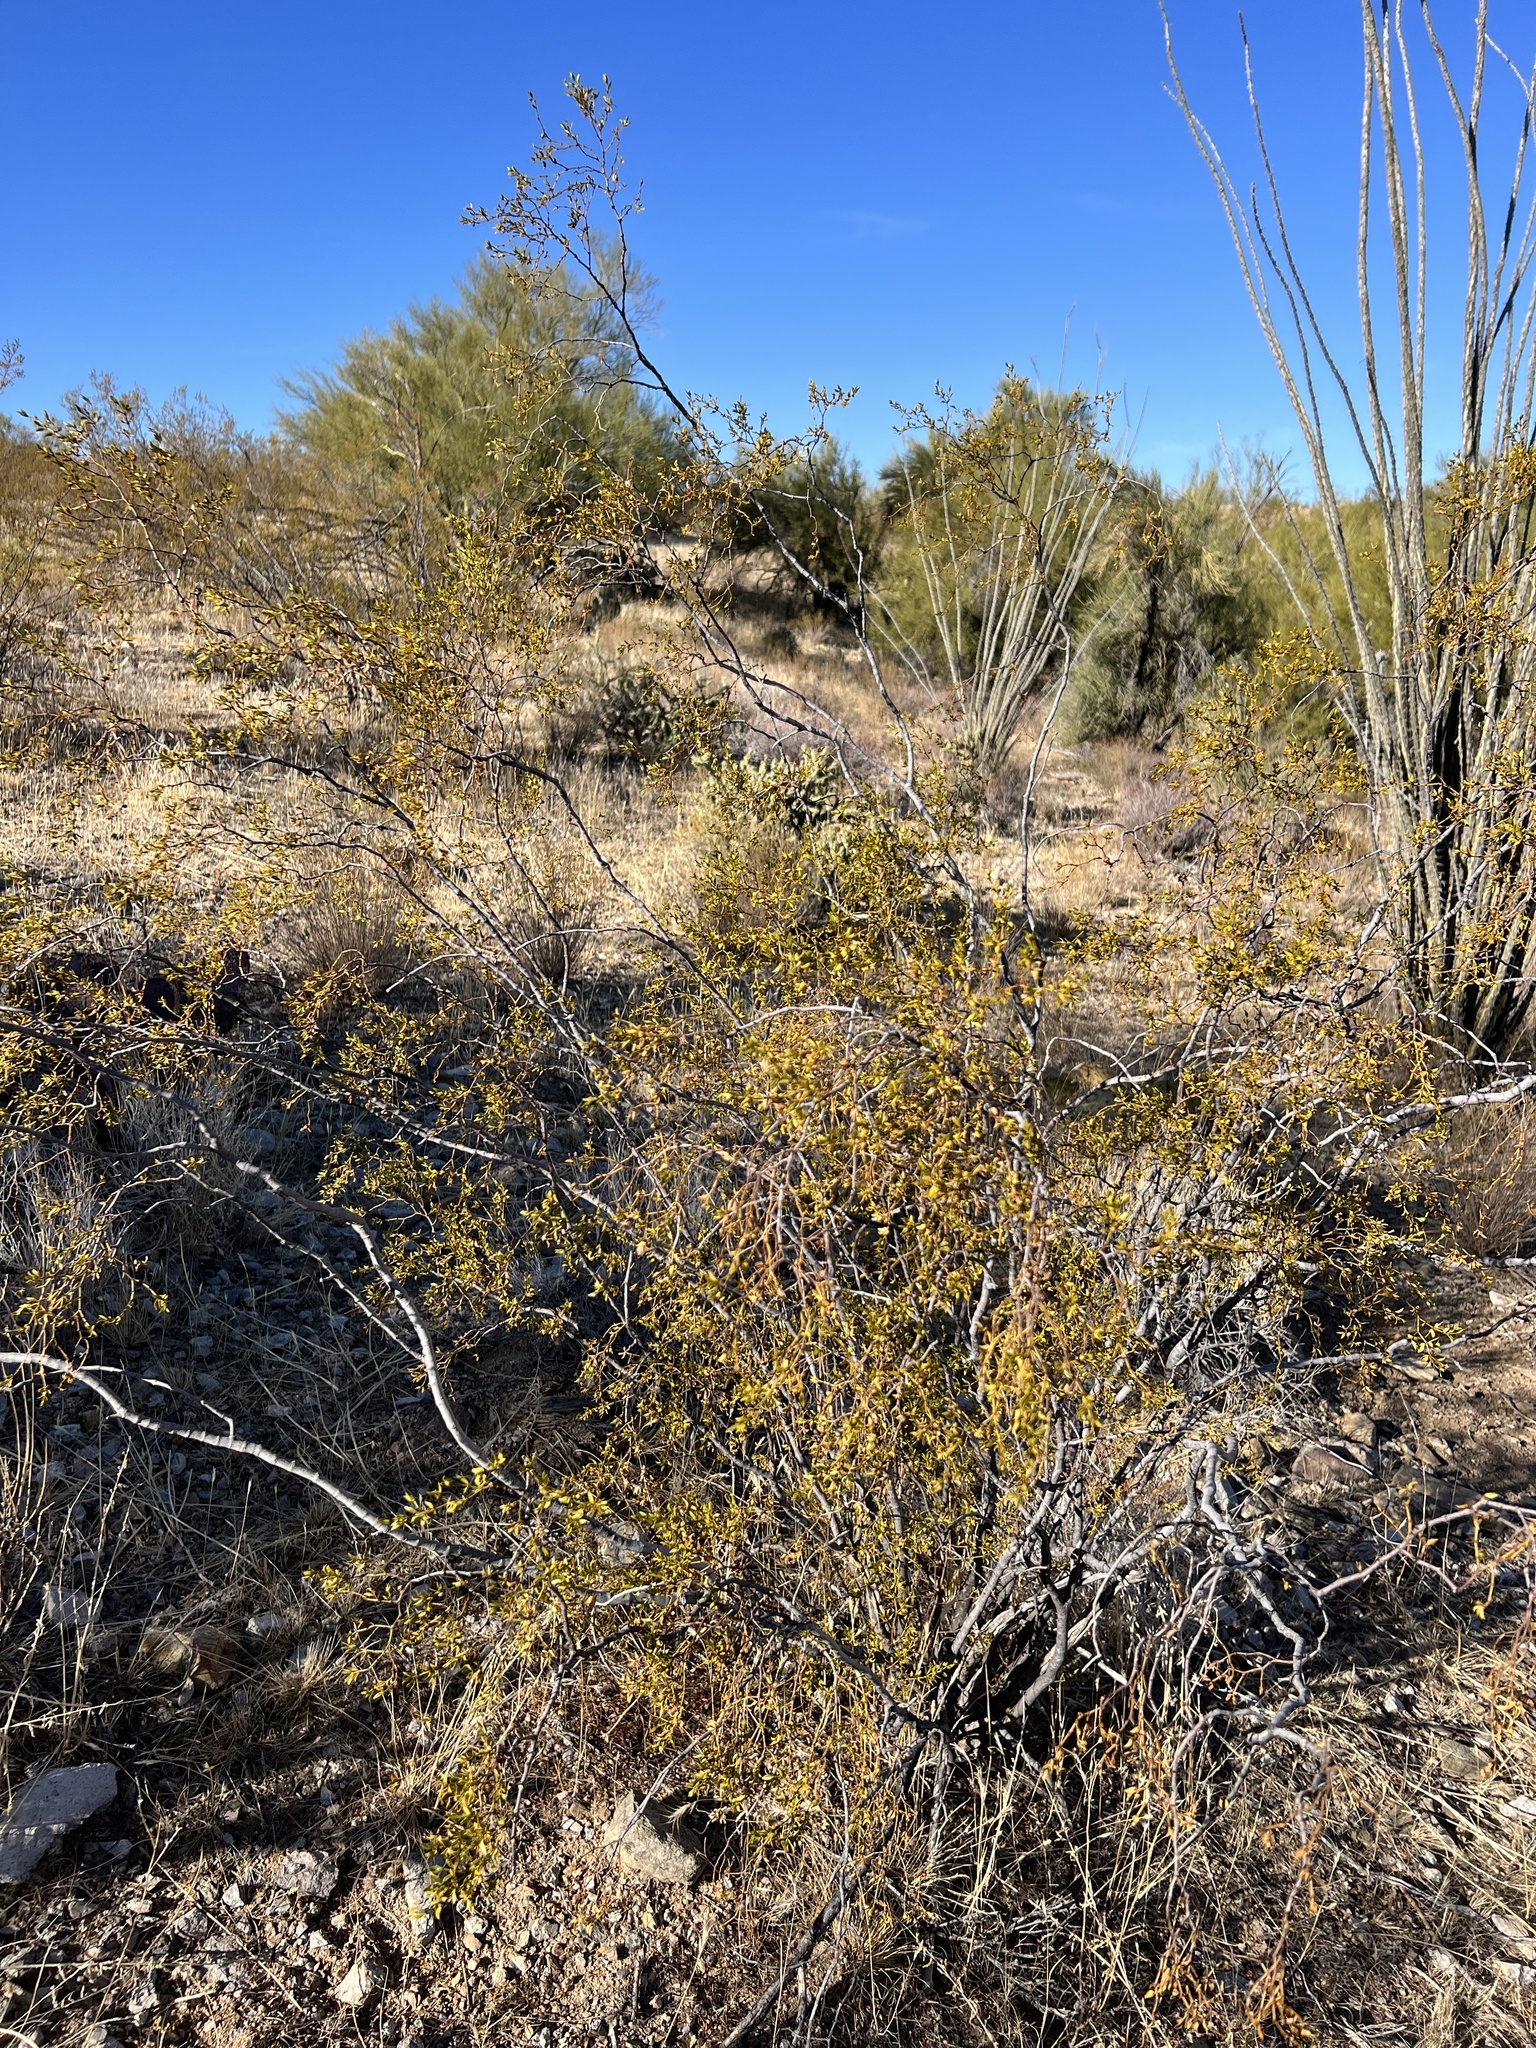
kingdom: Plantae
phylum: Tracheophyta
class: Magnoliopsida
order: Zygophyllales
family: Zygophyllaceae
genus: Larrea
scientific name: Larrea tridentata
